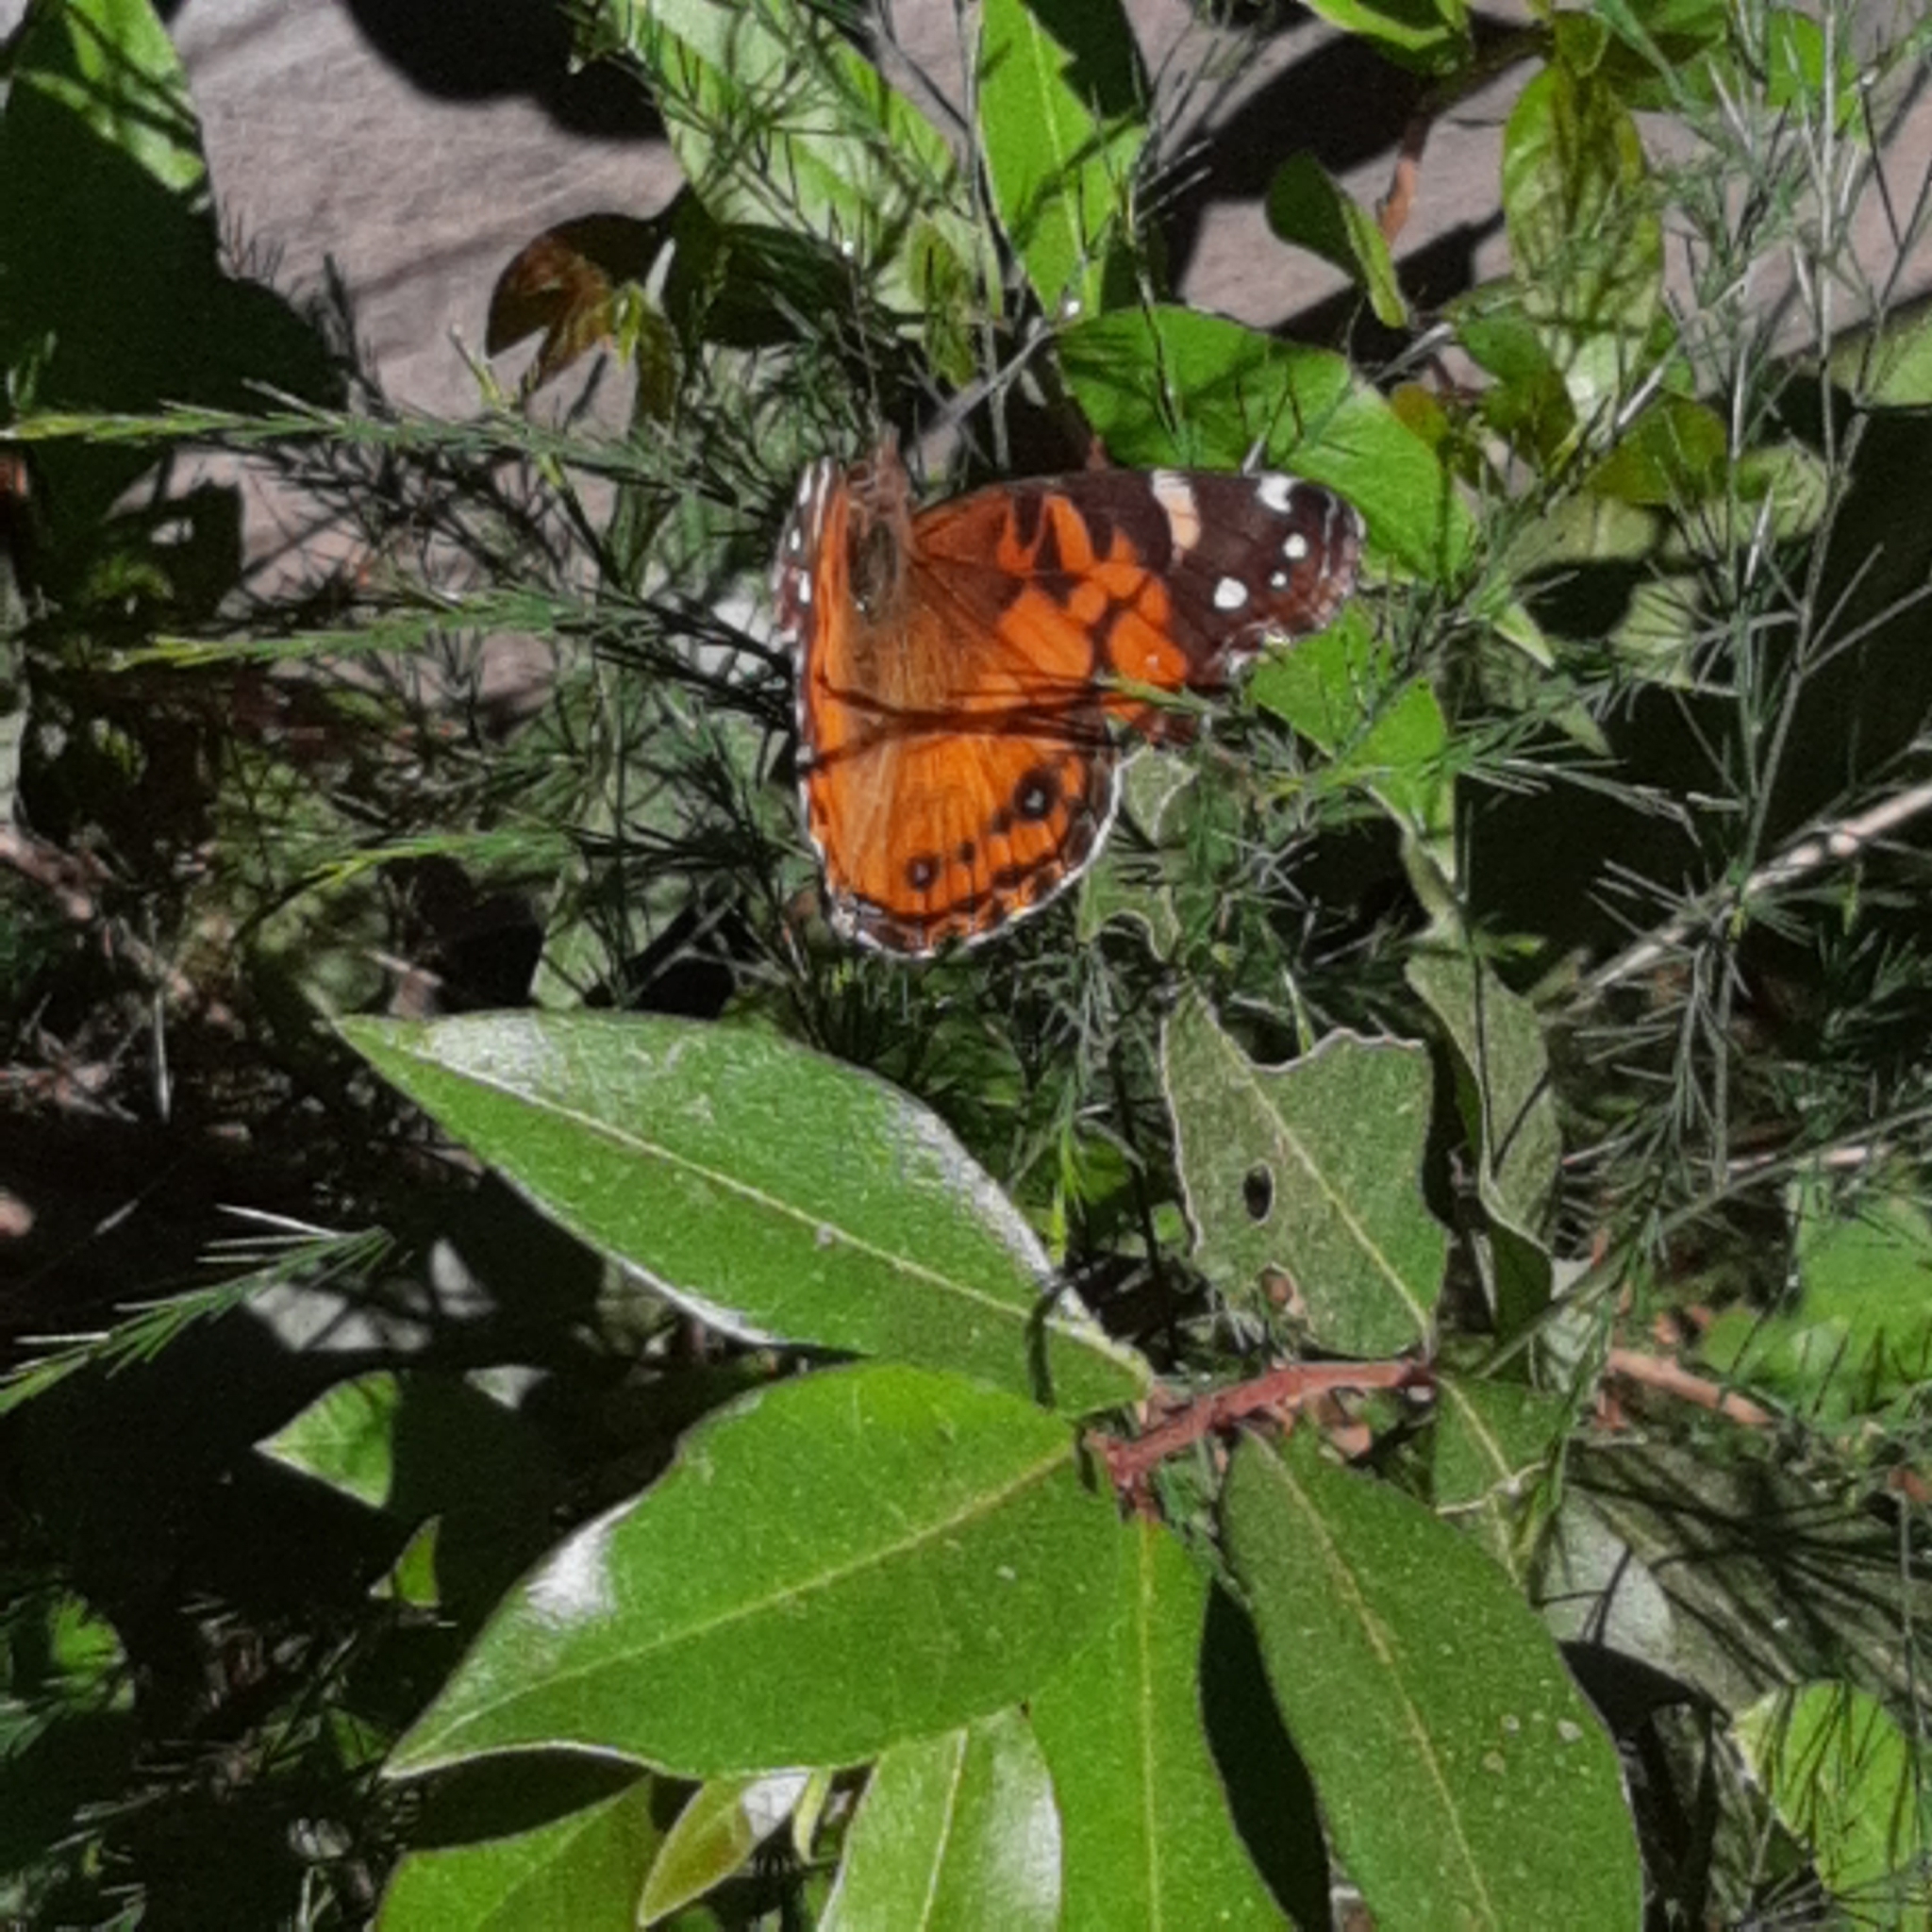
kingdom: Animalia
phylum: Arthropoda
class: Insecta
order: Lepidoptera
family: Nymphalidae
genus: Vanessa
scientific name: Vanessa virginiensis
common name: American lady
